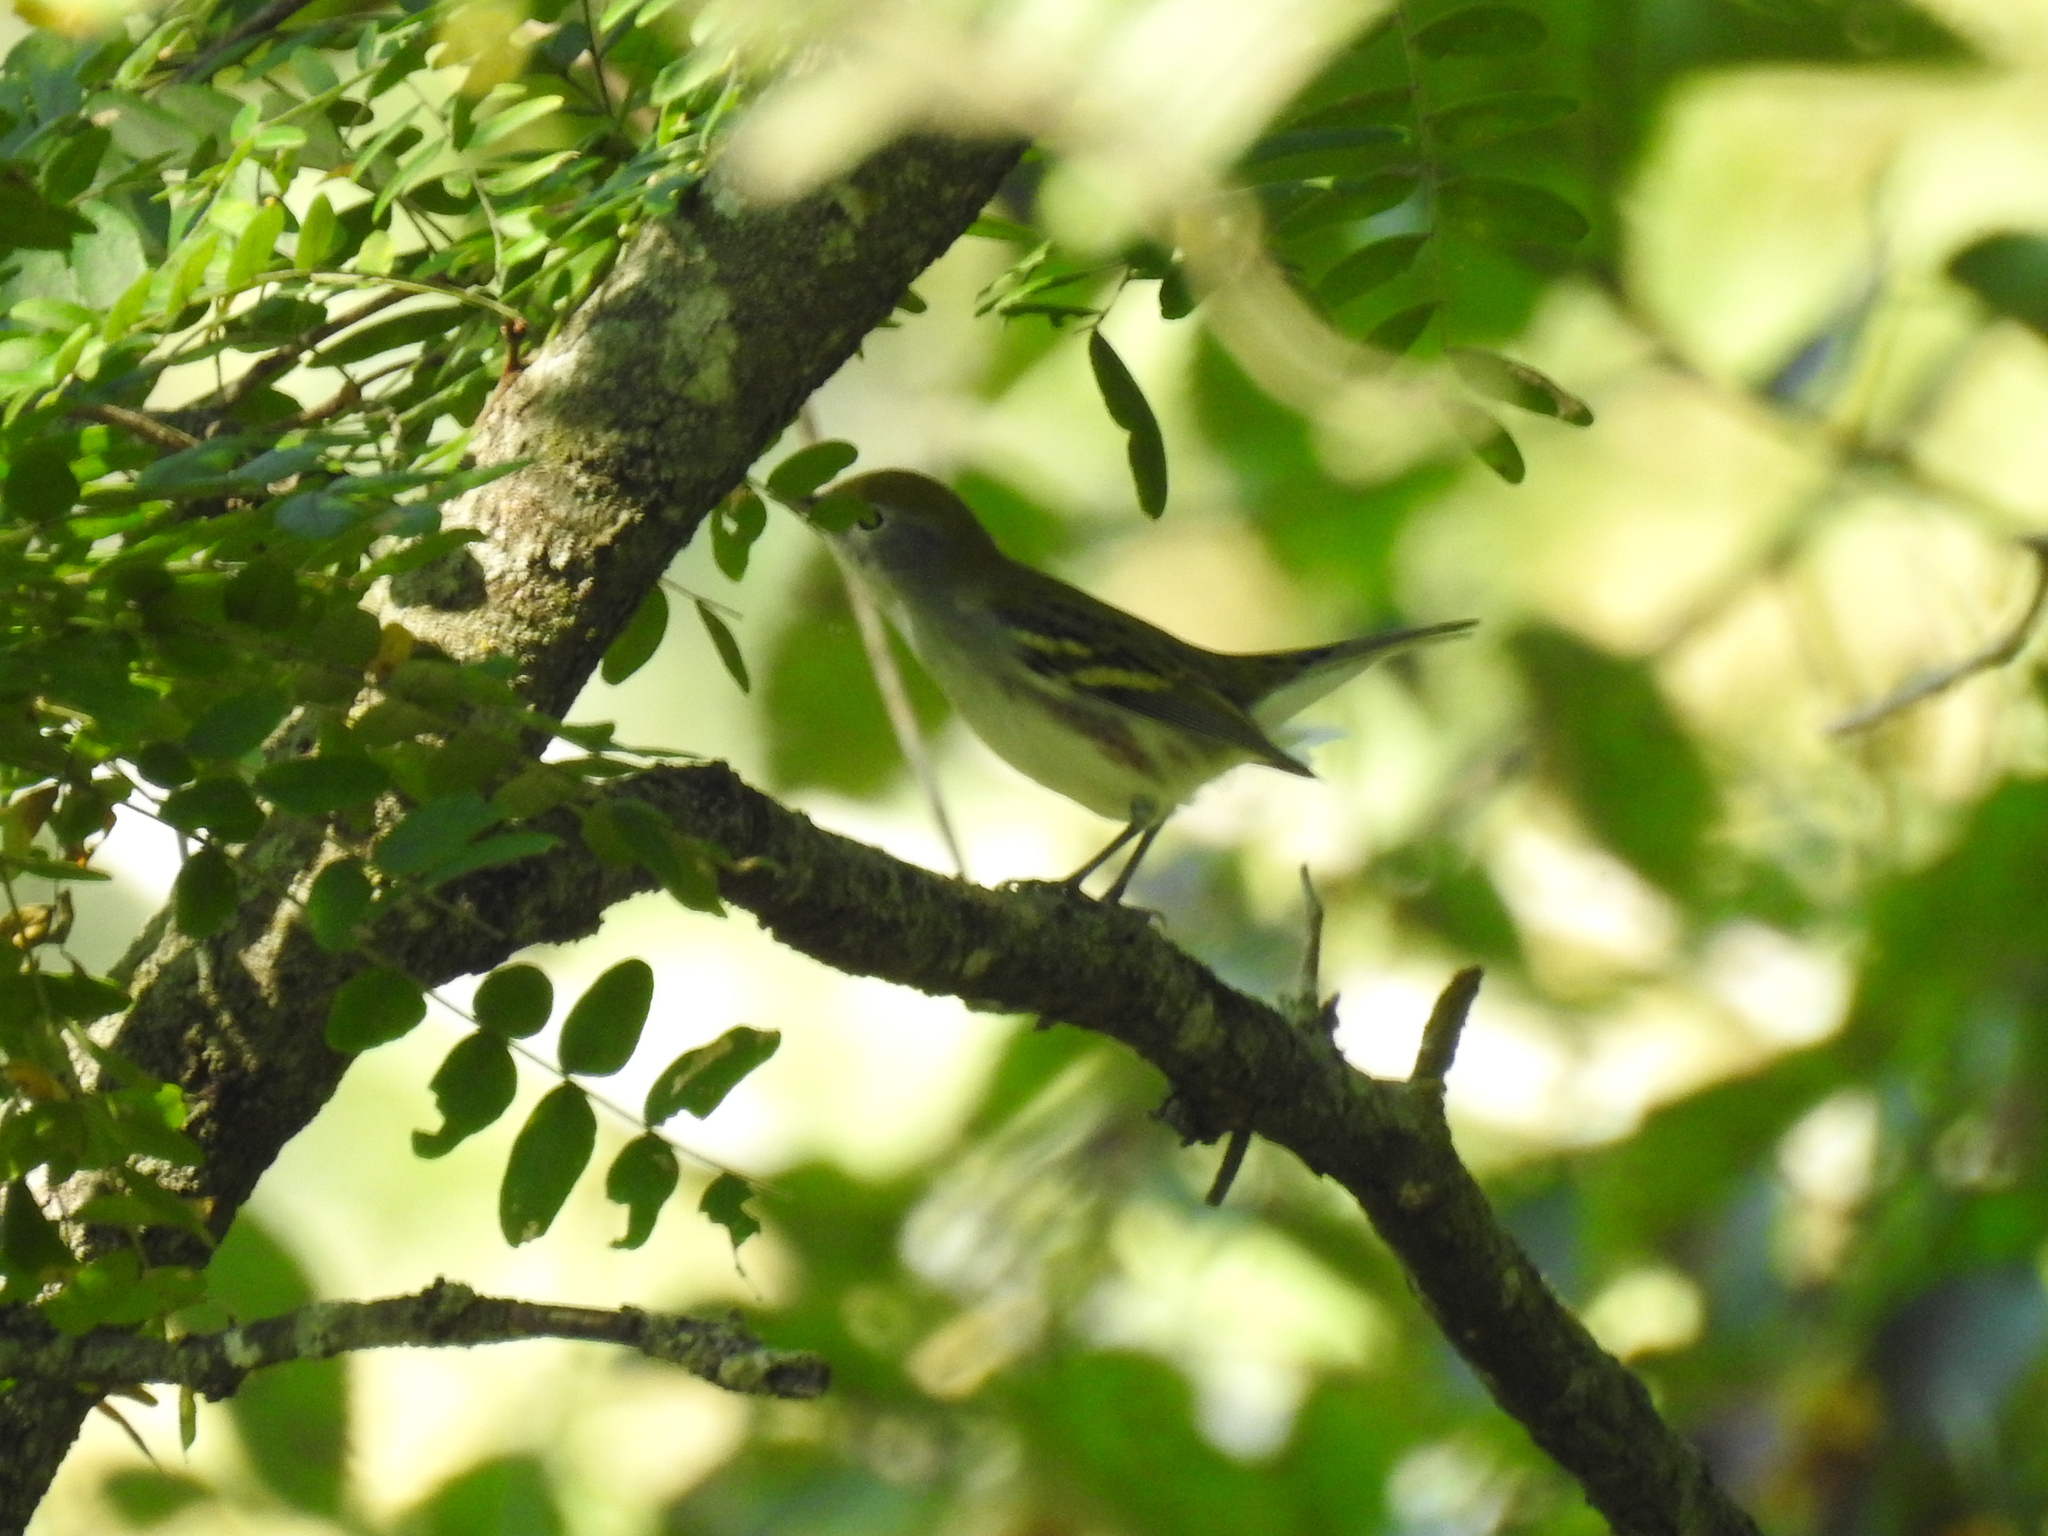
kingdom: Animalia
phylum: Chordata
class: Aves
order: Passeriformes
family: Parulidae
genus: Setophaga
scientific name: Setophaga pensylvanica
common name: Chestnut-sided warbler
